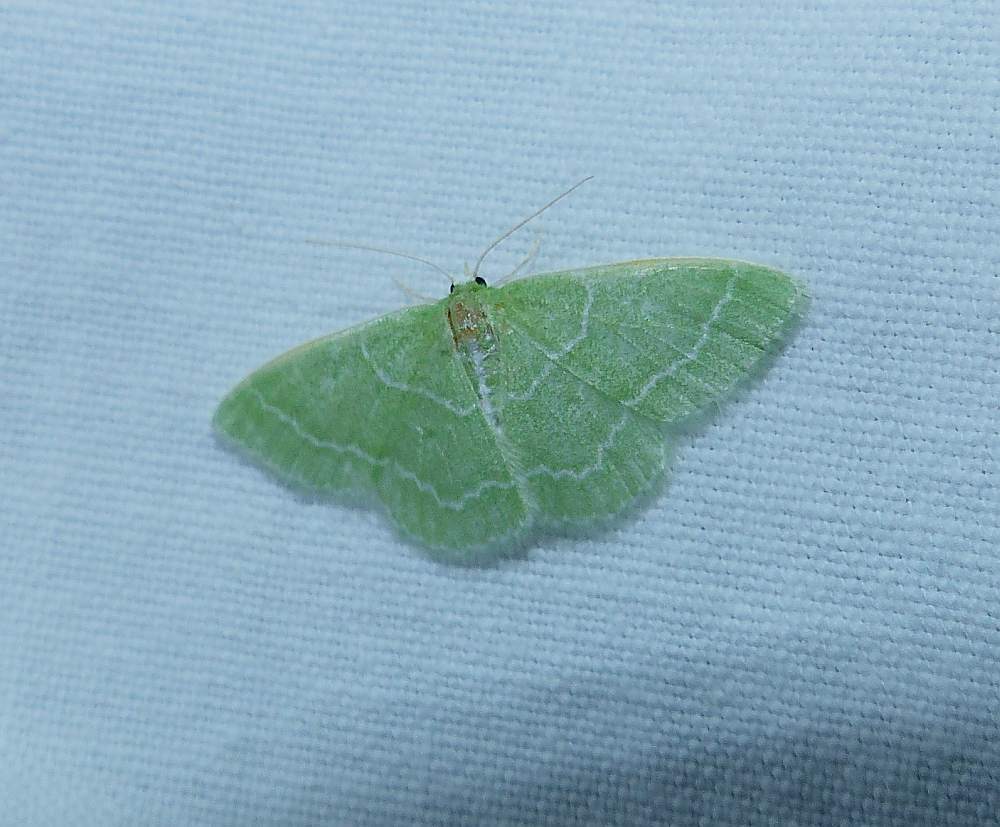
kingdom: Animalia
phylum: Arthropoda
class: Insecta
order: Lepidoptera
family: Geometridae
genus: Synchlora
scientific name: Synchlora aerata
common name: Wavy-lined emerald
